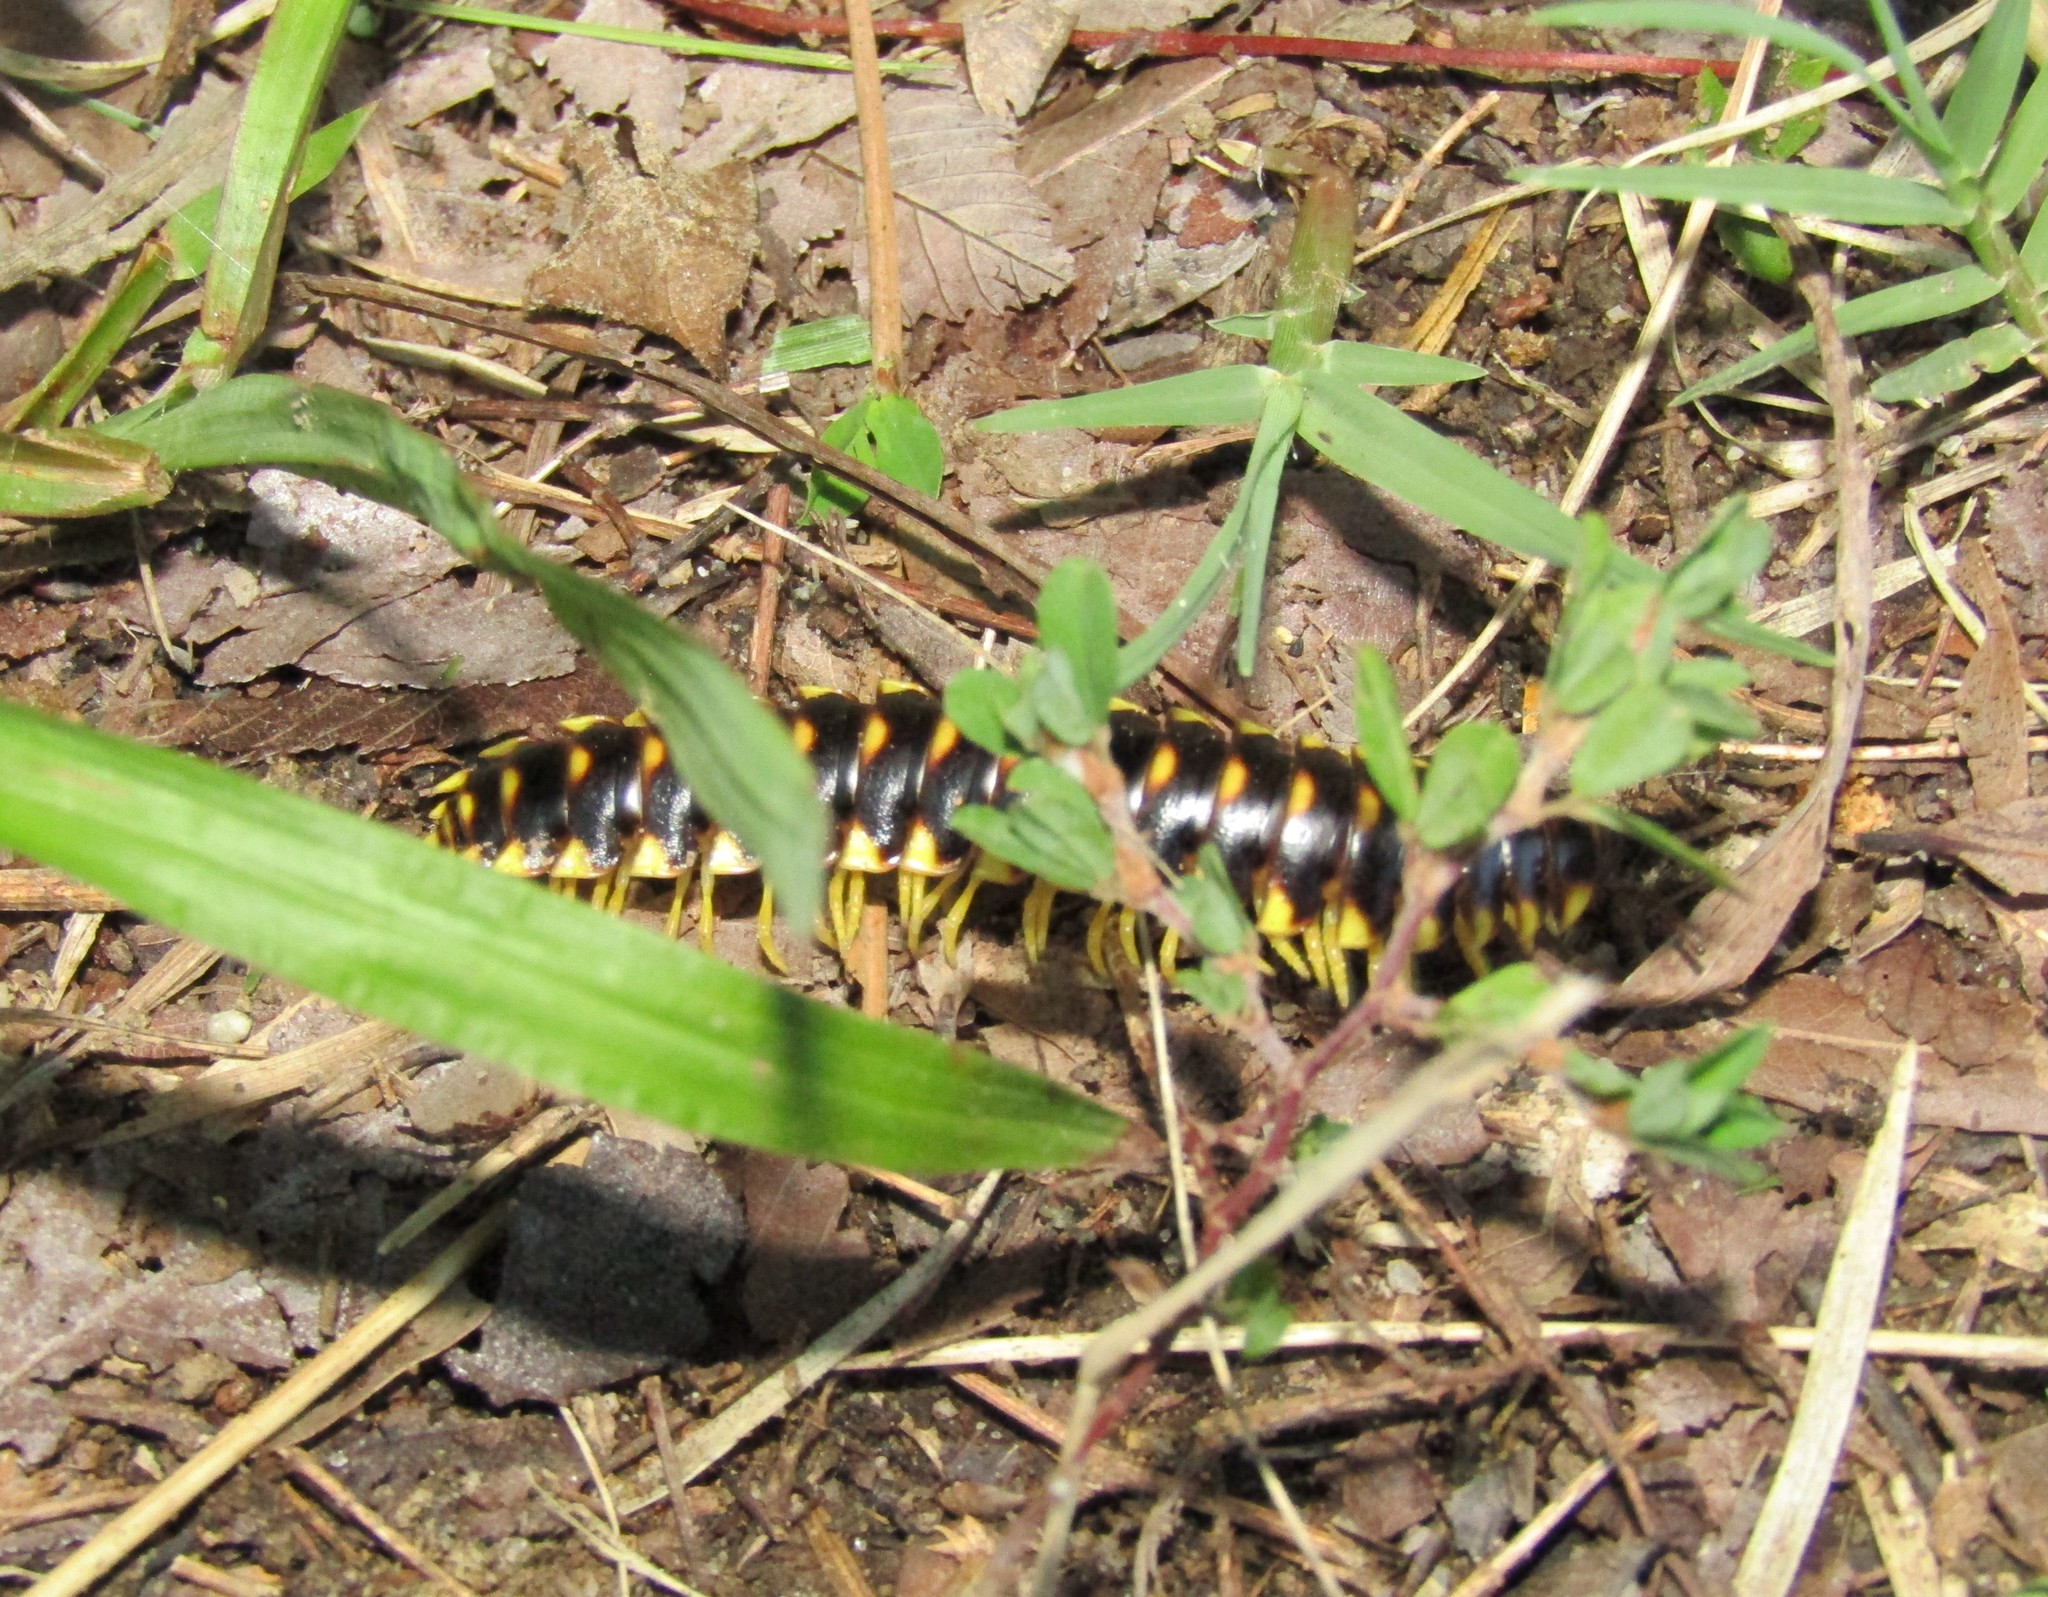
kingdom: Animalia
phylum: Arthropoda
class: Diplopoda
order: Polydesmida
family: Xystodesmidae
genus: Apheloria
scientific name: Apheloria virginiensis
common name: Black-and-gold flat millipede
